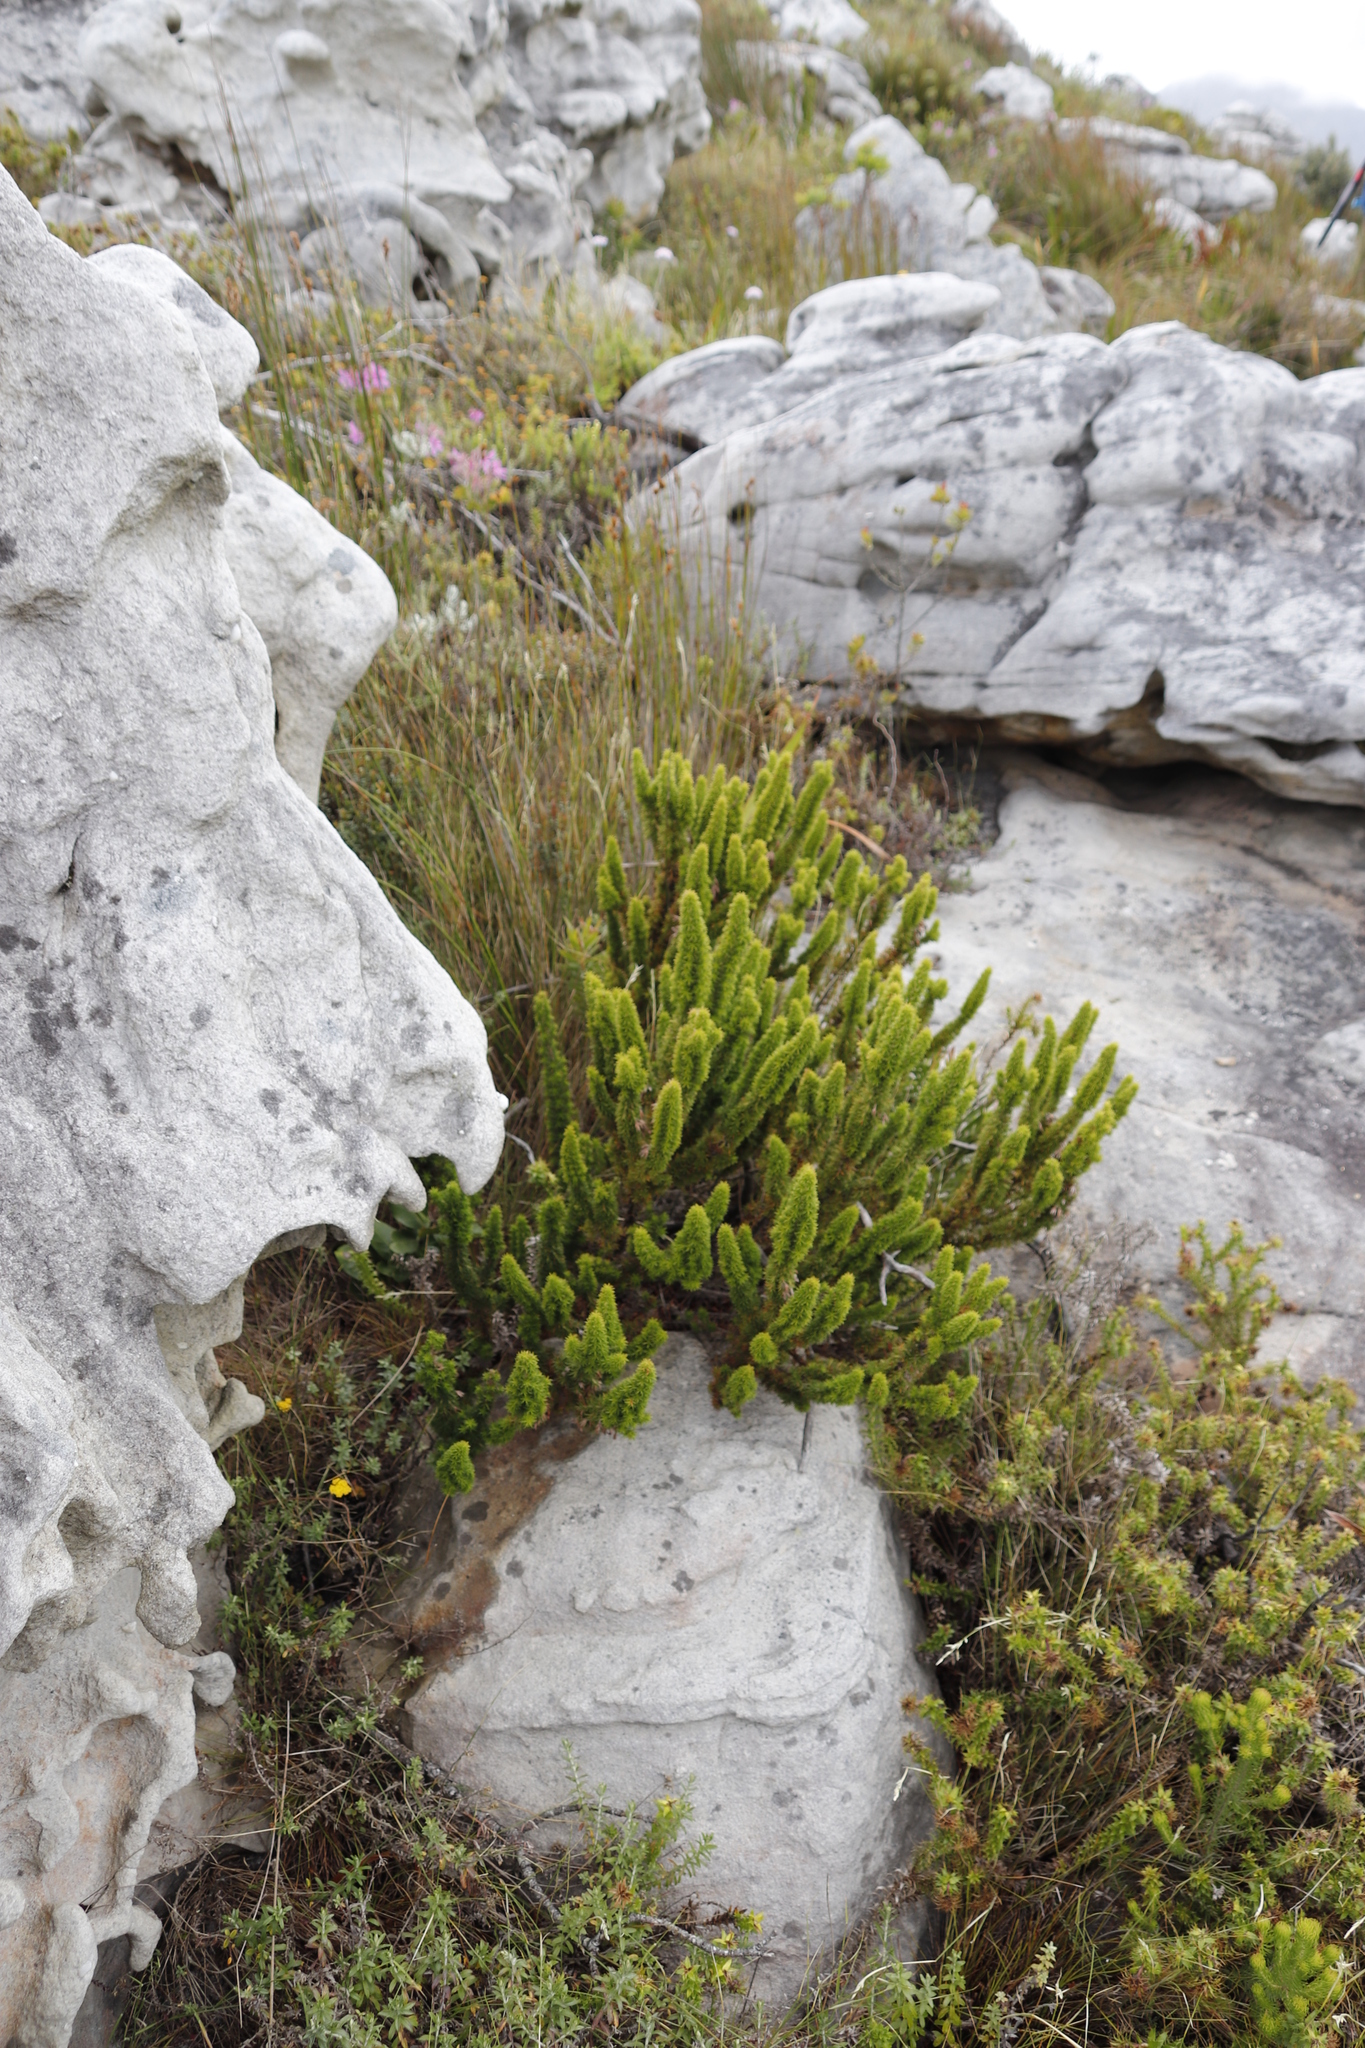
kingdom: Plantae
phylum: Tracheophyta
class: Magnoliopsida
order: Ericales
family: Ericaceae
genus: Erica
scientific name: Erica coccinea
